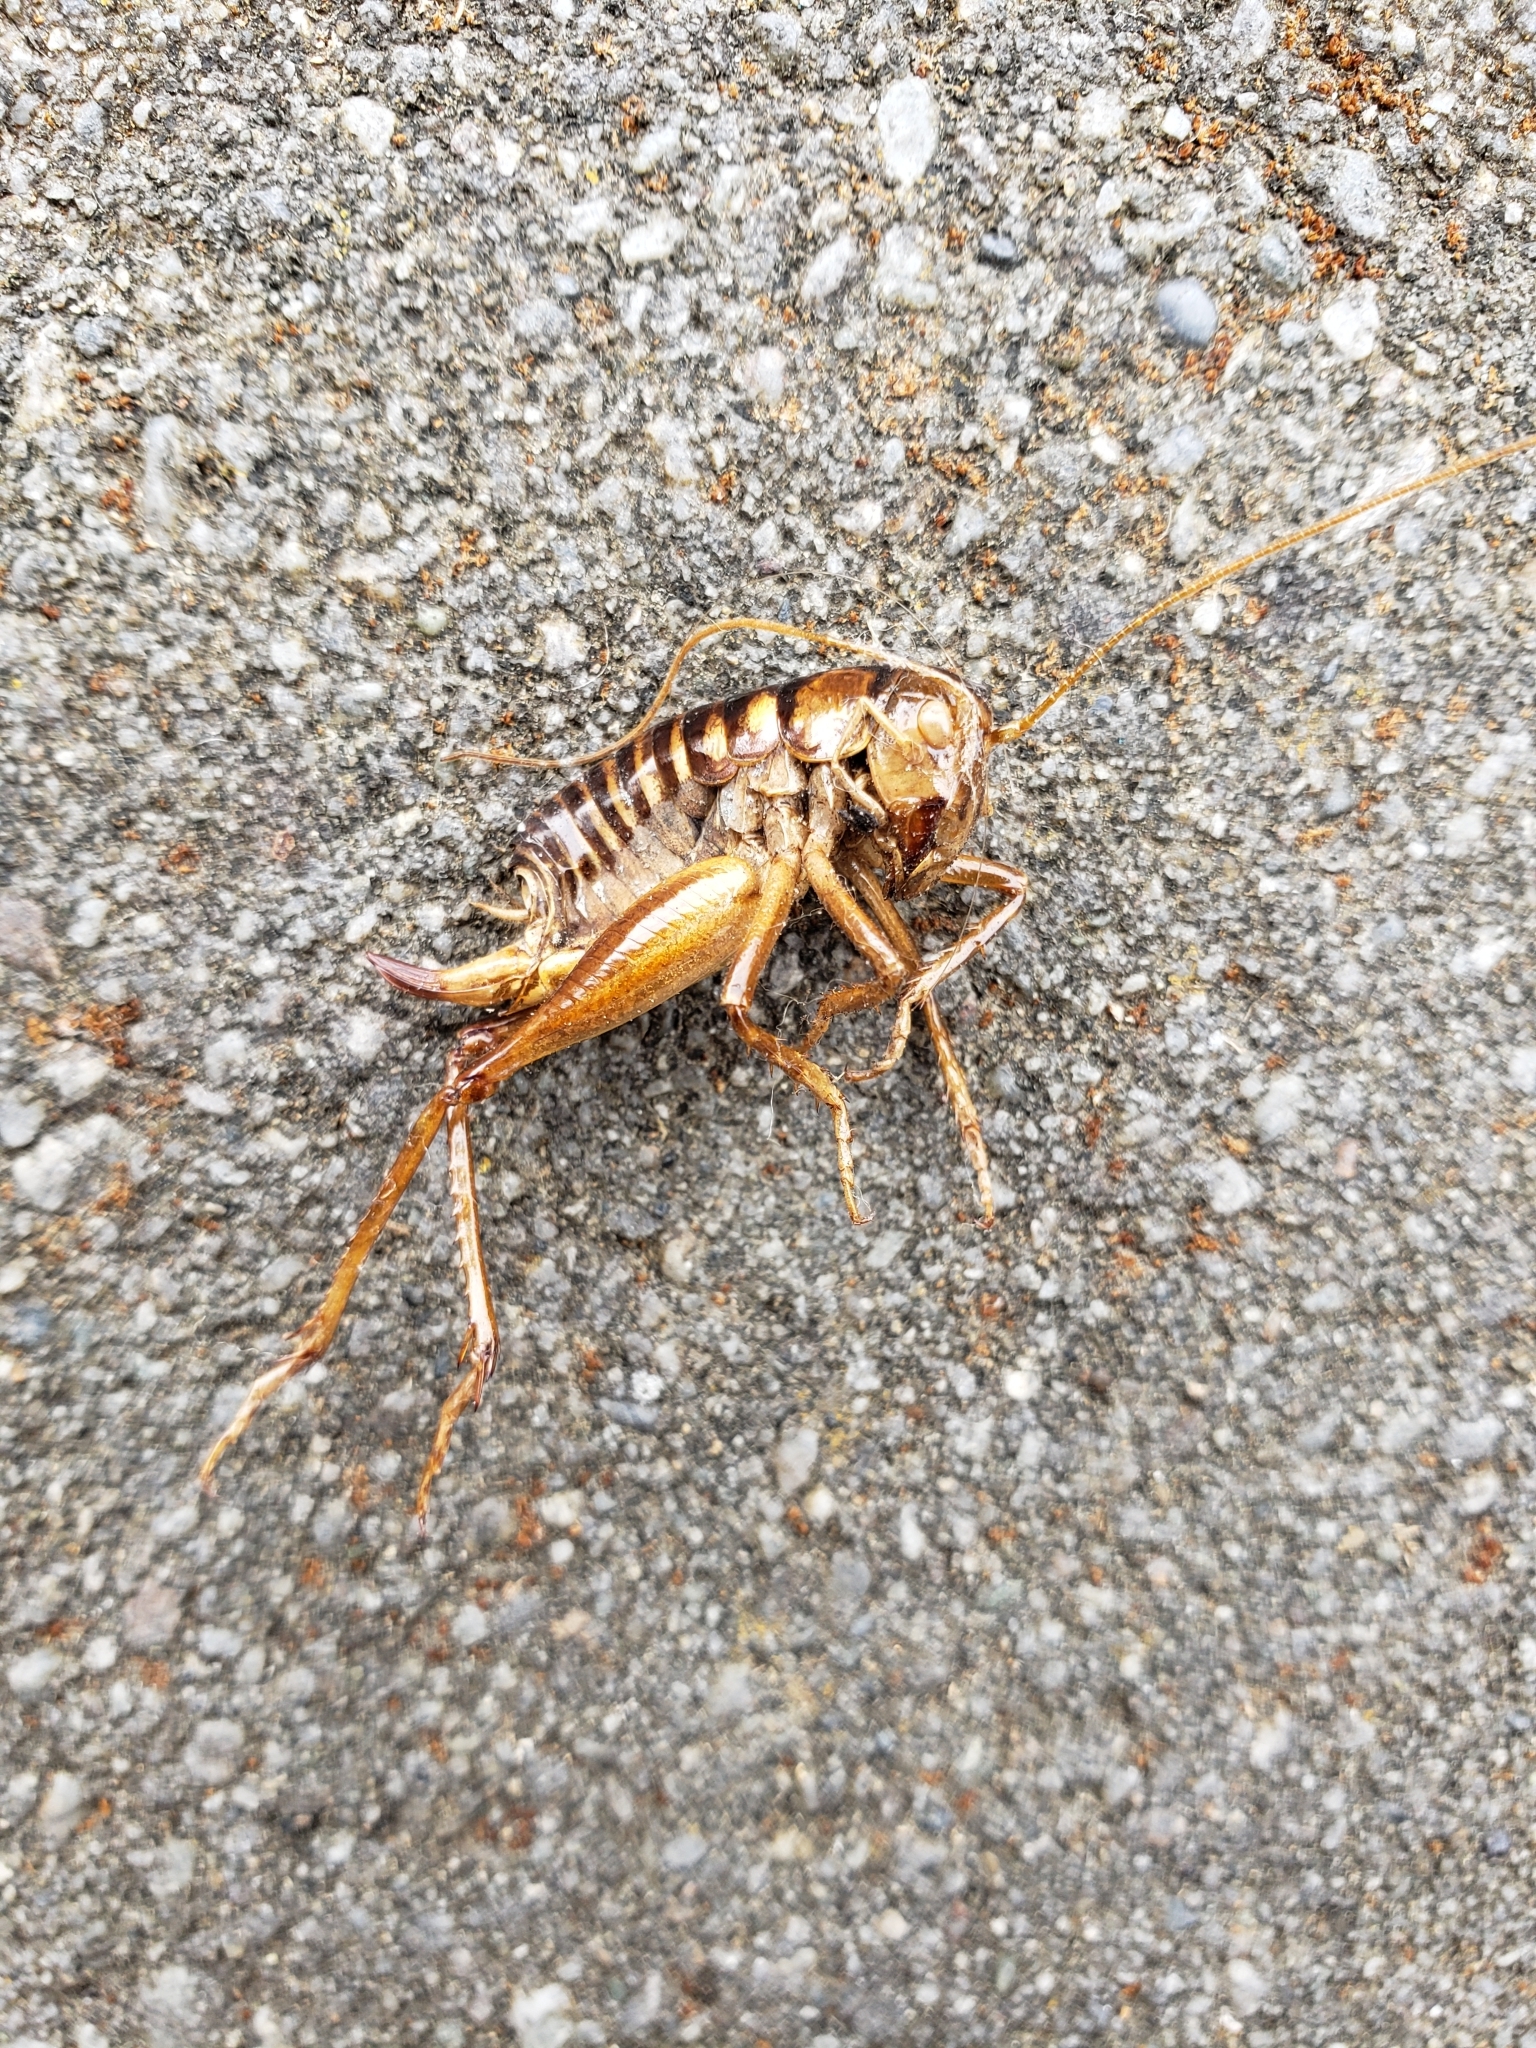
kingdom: Animalia
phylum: Arthropoda
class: Insecta
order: Orthoptera
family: Anostostomatidae
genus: Hemiandrus
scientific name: Hemiandrus maia
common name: Otago ground weta
